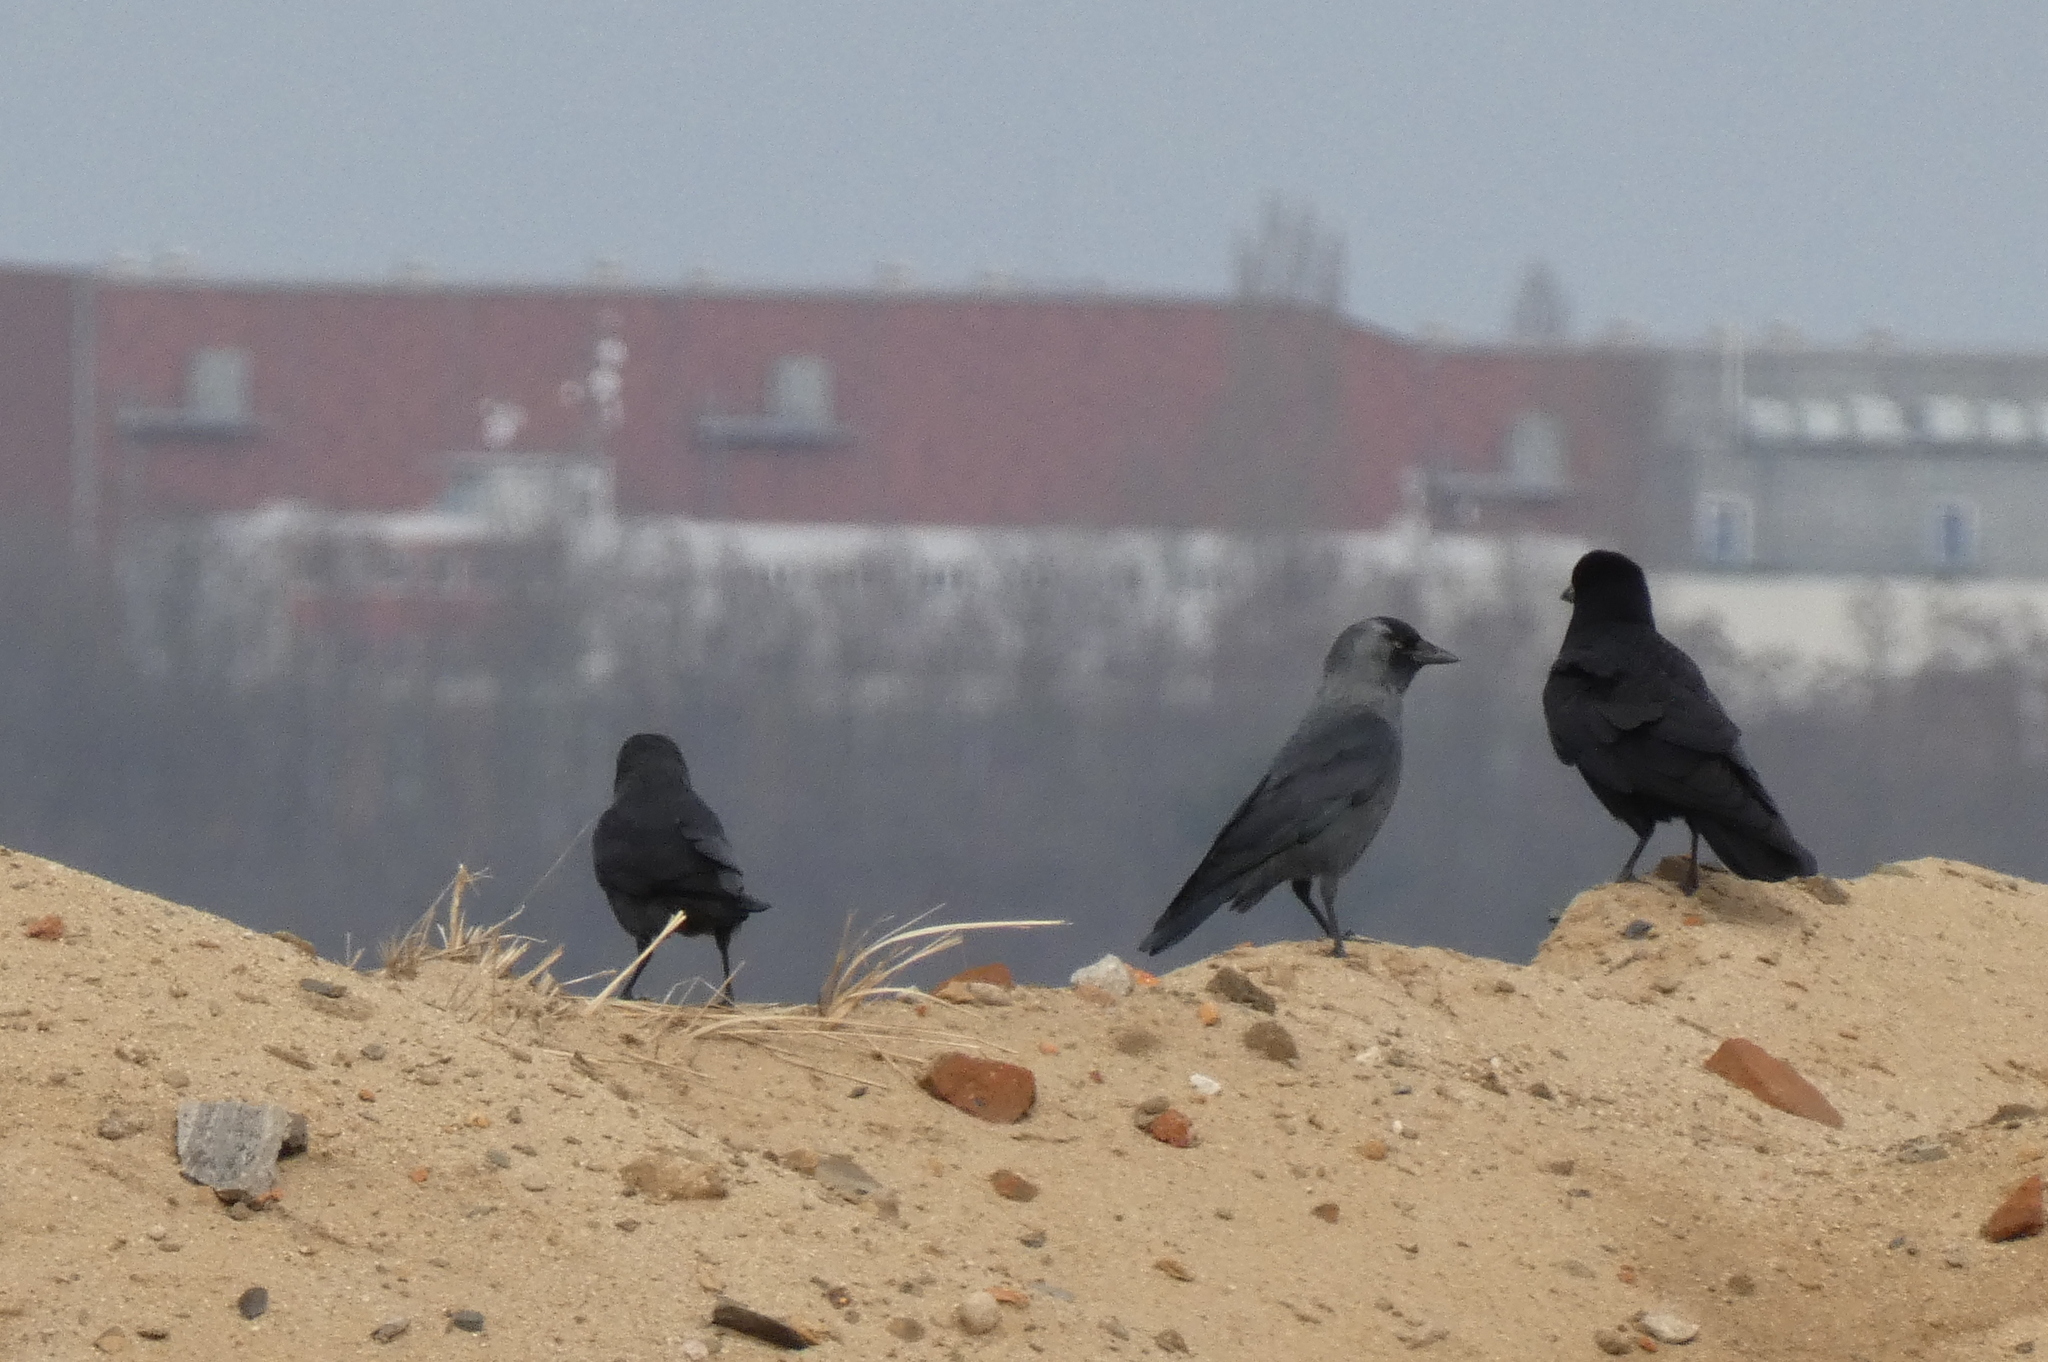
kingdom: Animalia
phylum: Chordata
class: Aves
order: Passeriformes
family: Corvidae
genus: Coloeus
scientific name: Coloeus monedula
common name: Western jackdaw
